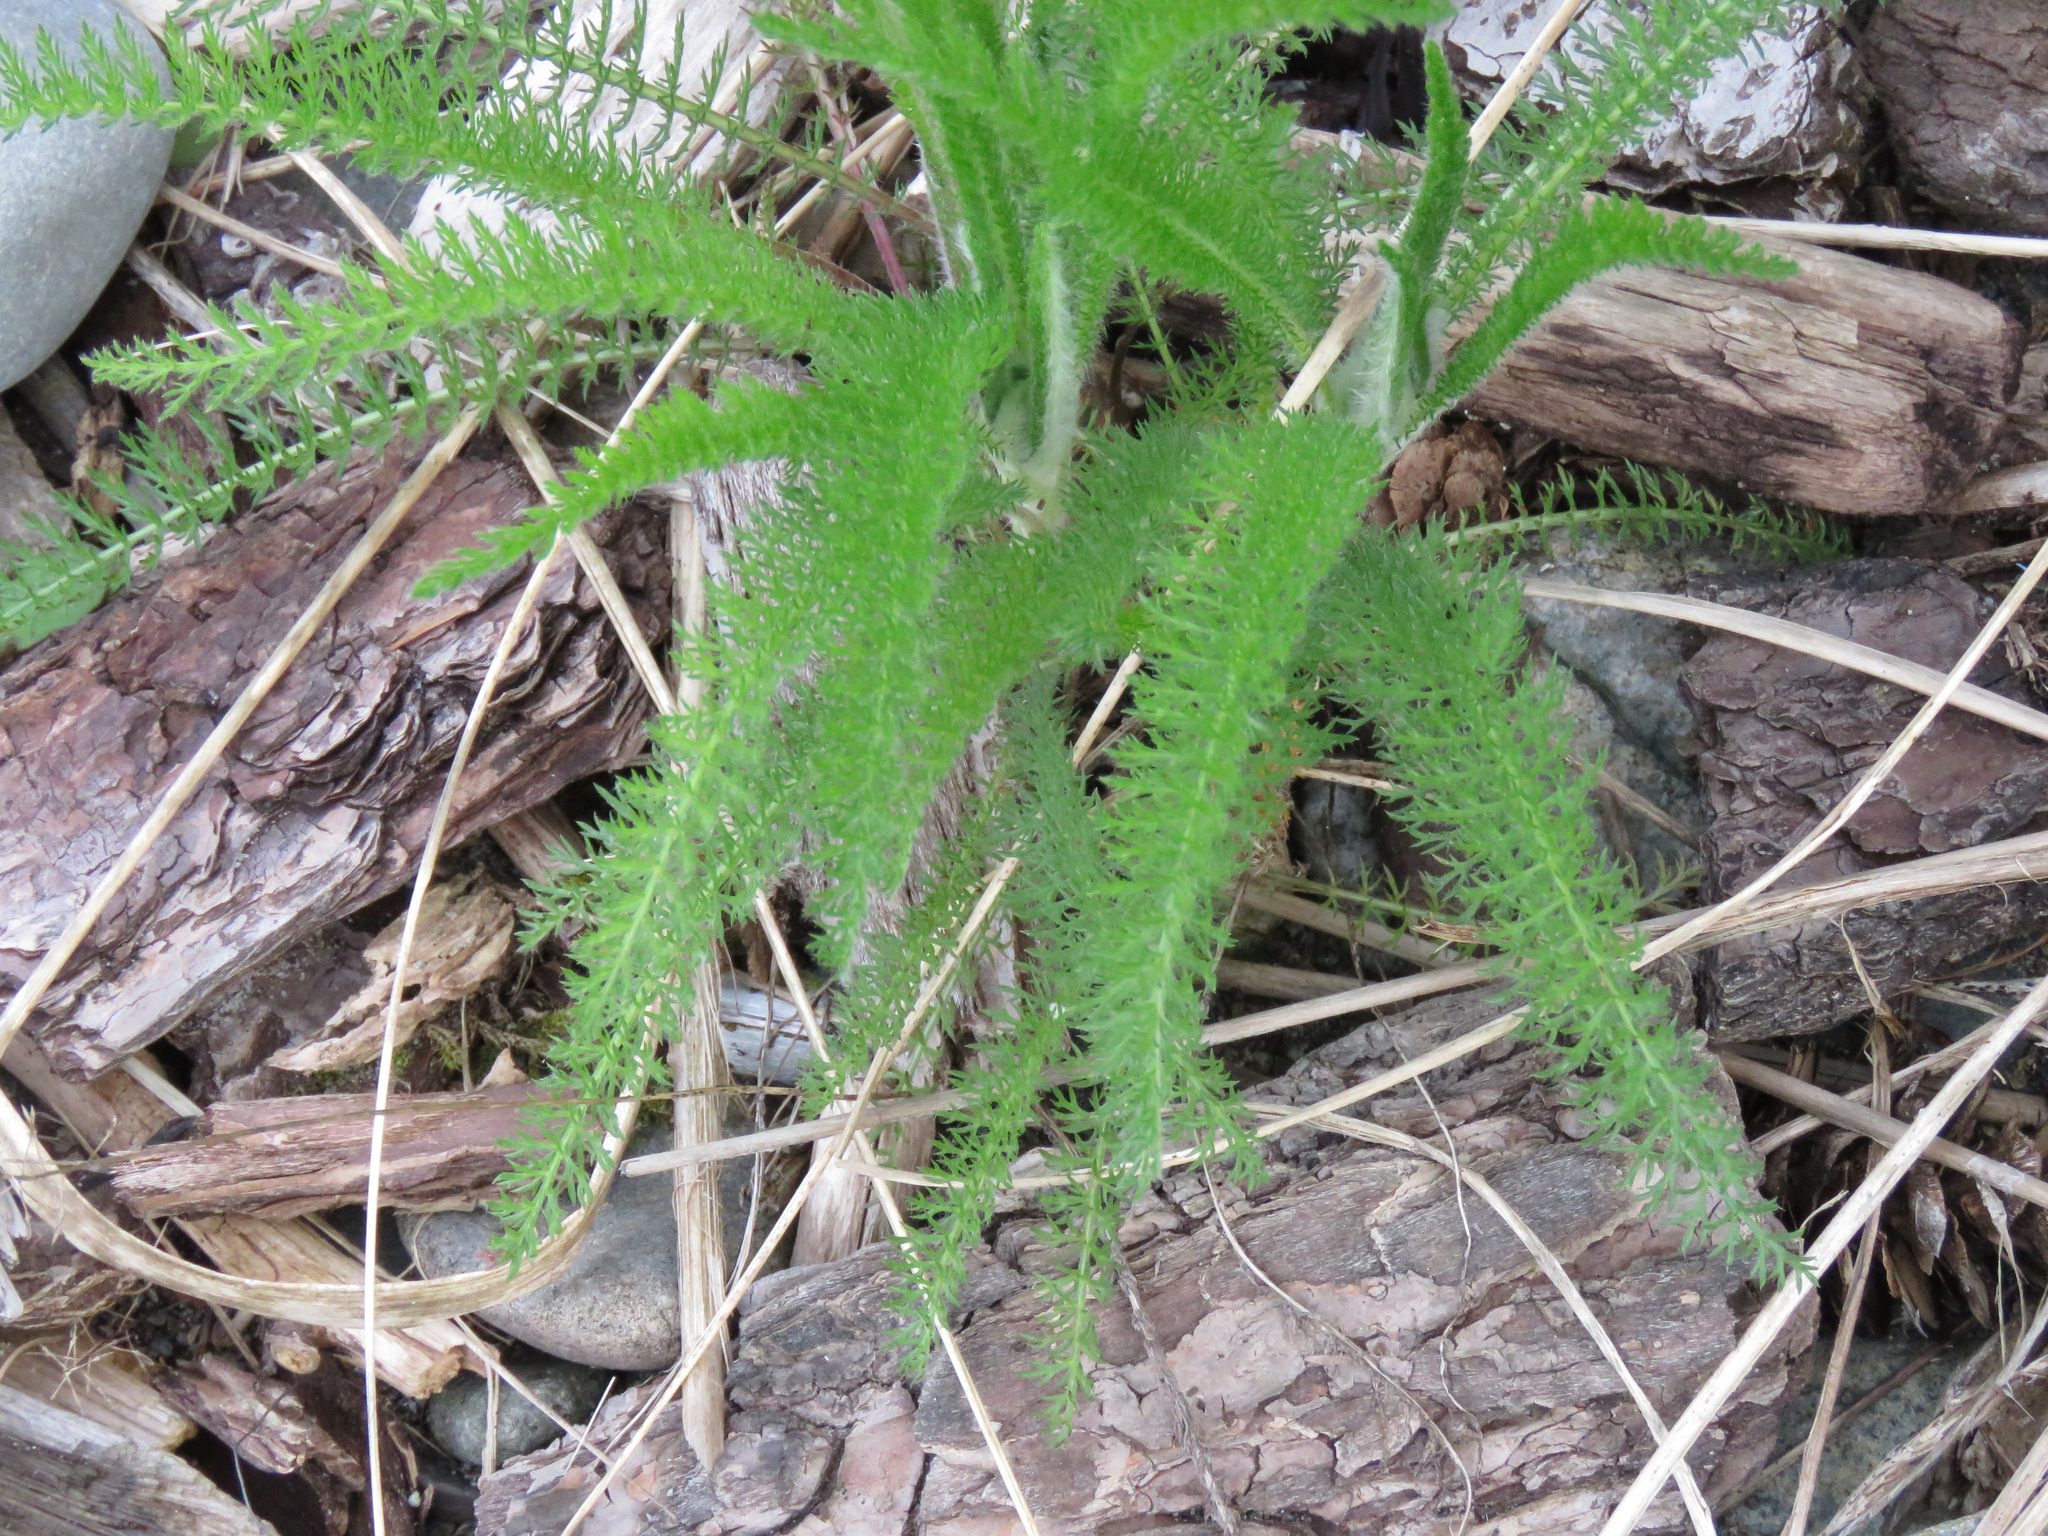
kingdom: Plantae
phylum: Tracheophyta
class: Magnoliopsida
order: Asterales
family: Asteraceae
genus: Achillea
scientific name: Achillea millefolium
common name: Yarrow
